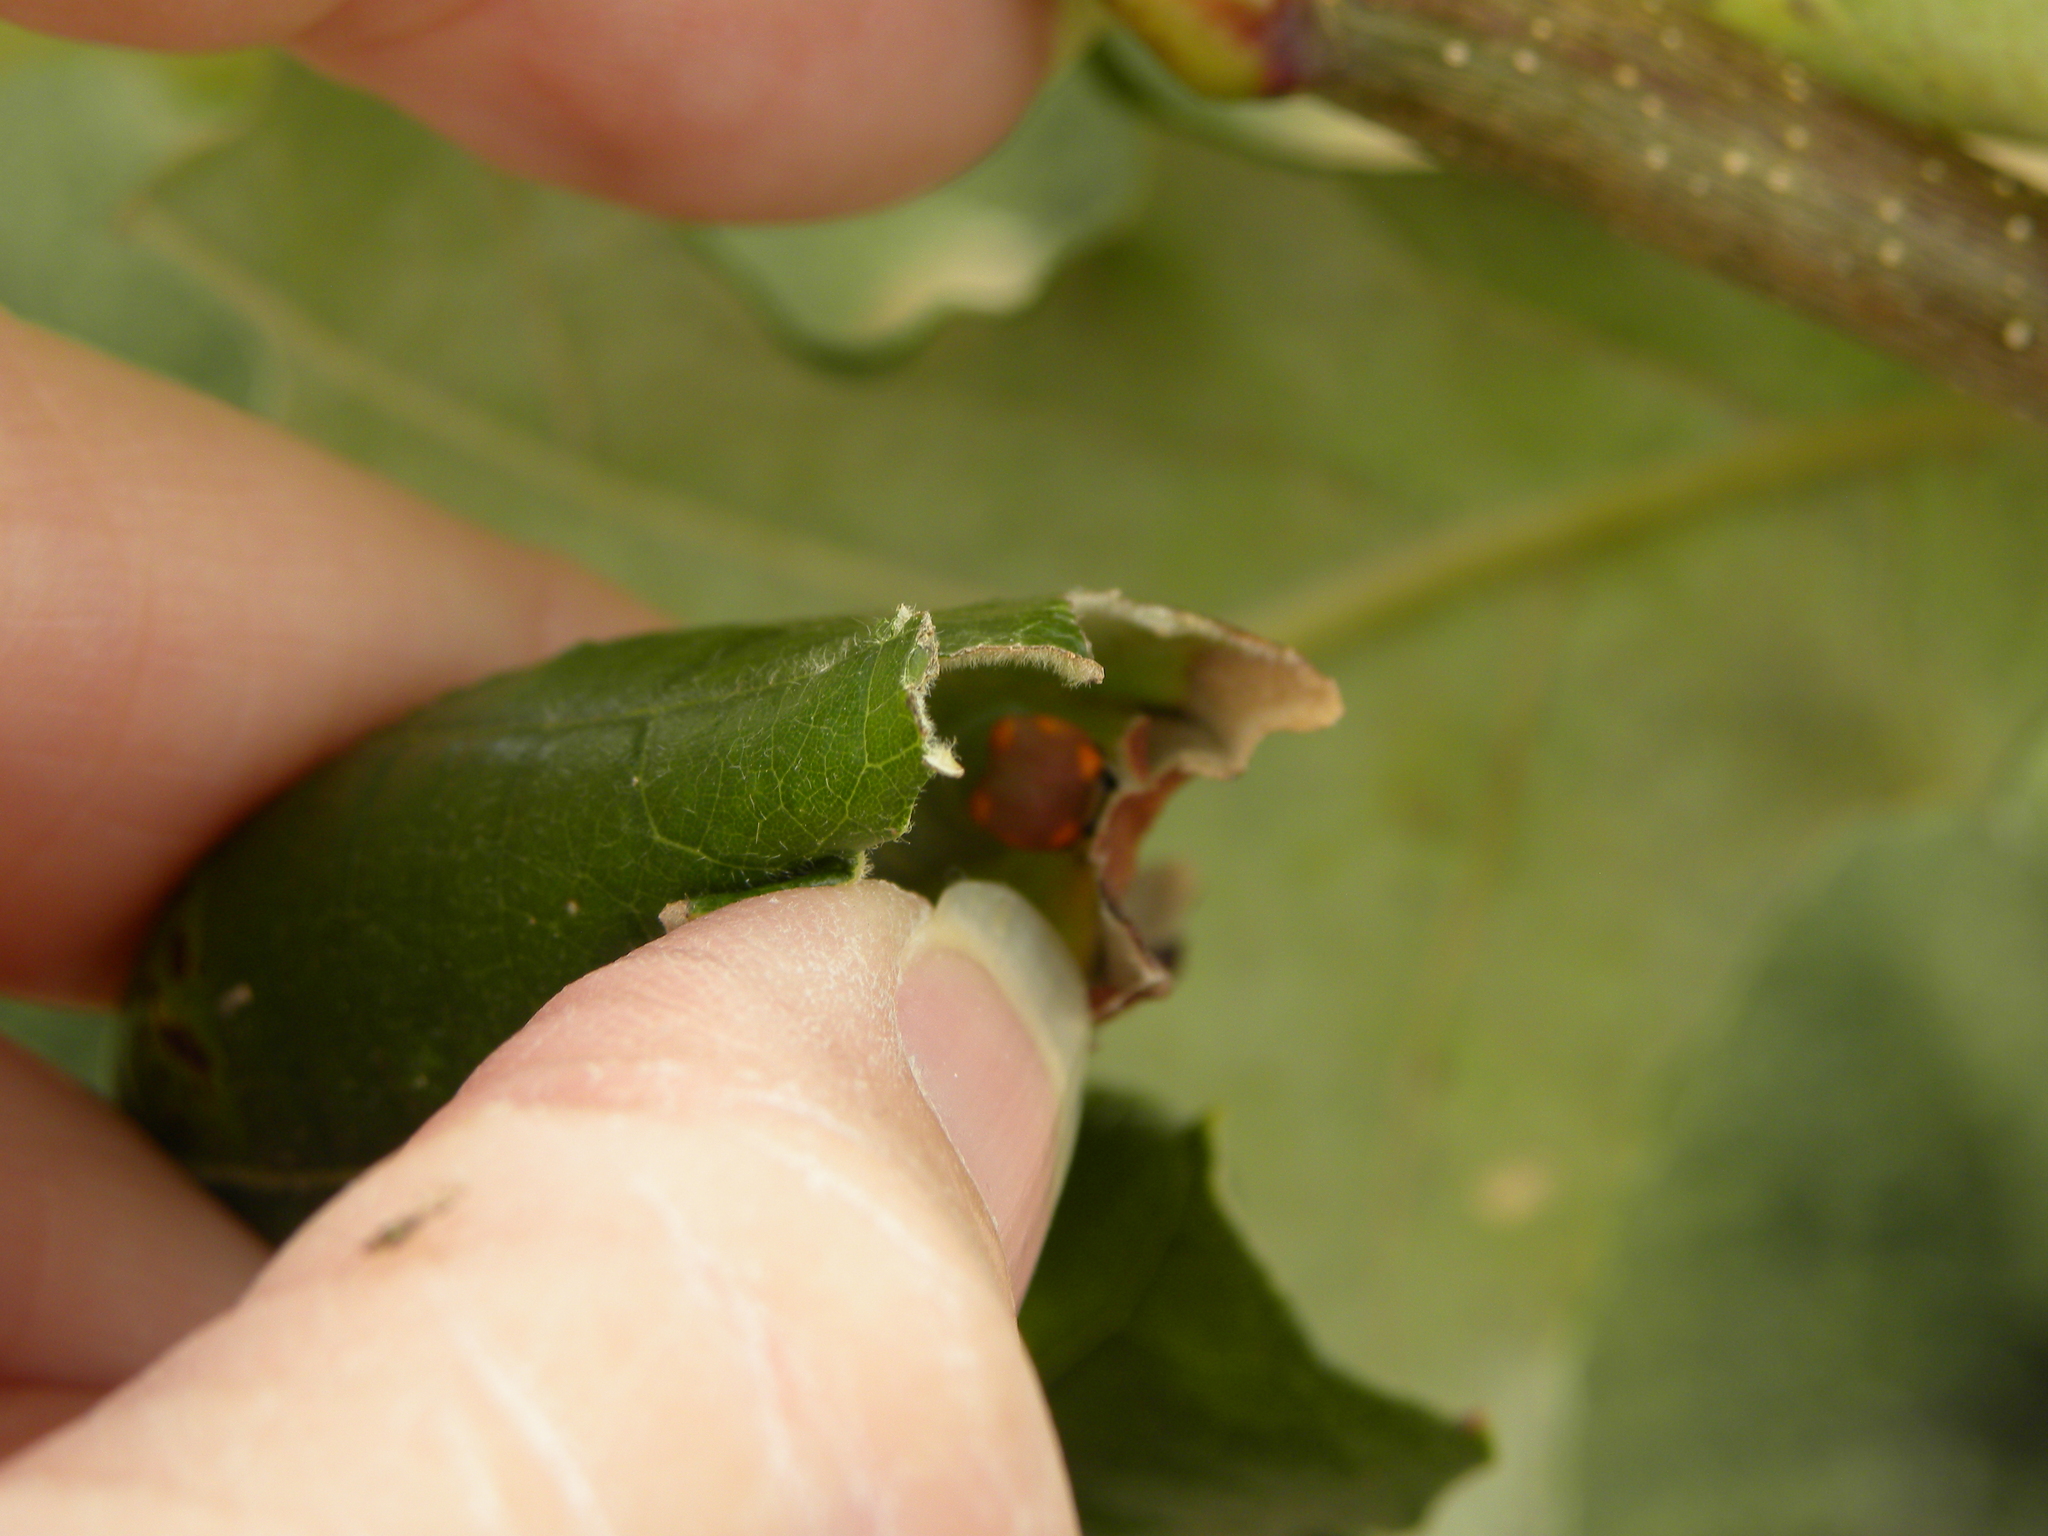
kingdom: Animalia
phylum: Arthropoda
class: Insecta
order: Lepidoptera
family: Hesperiidae
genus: Erynnis
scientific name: Erynnis horatius
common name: Horace's duskywing
